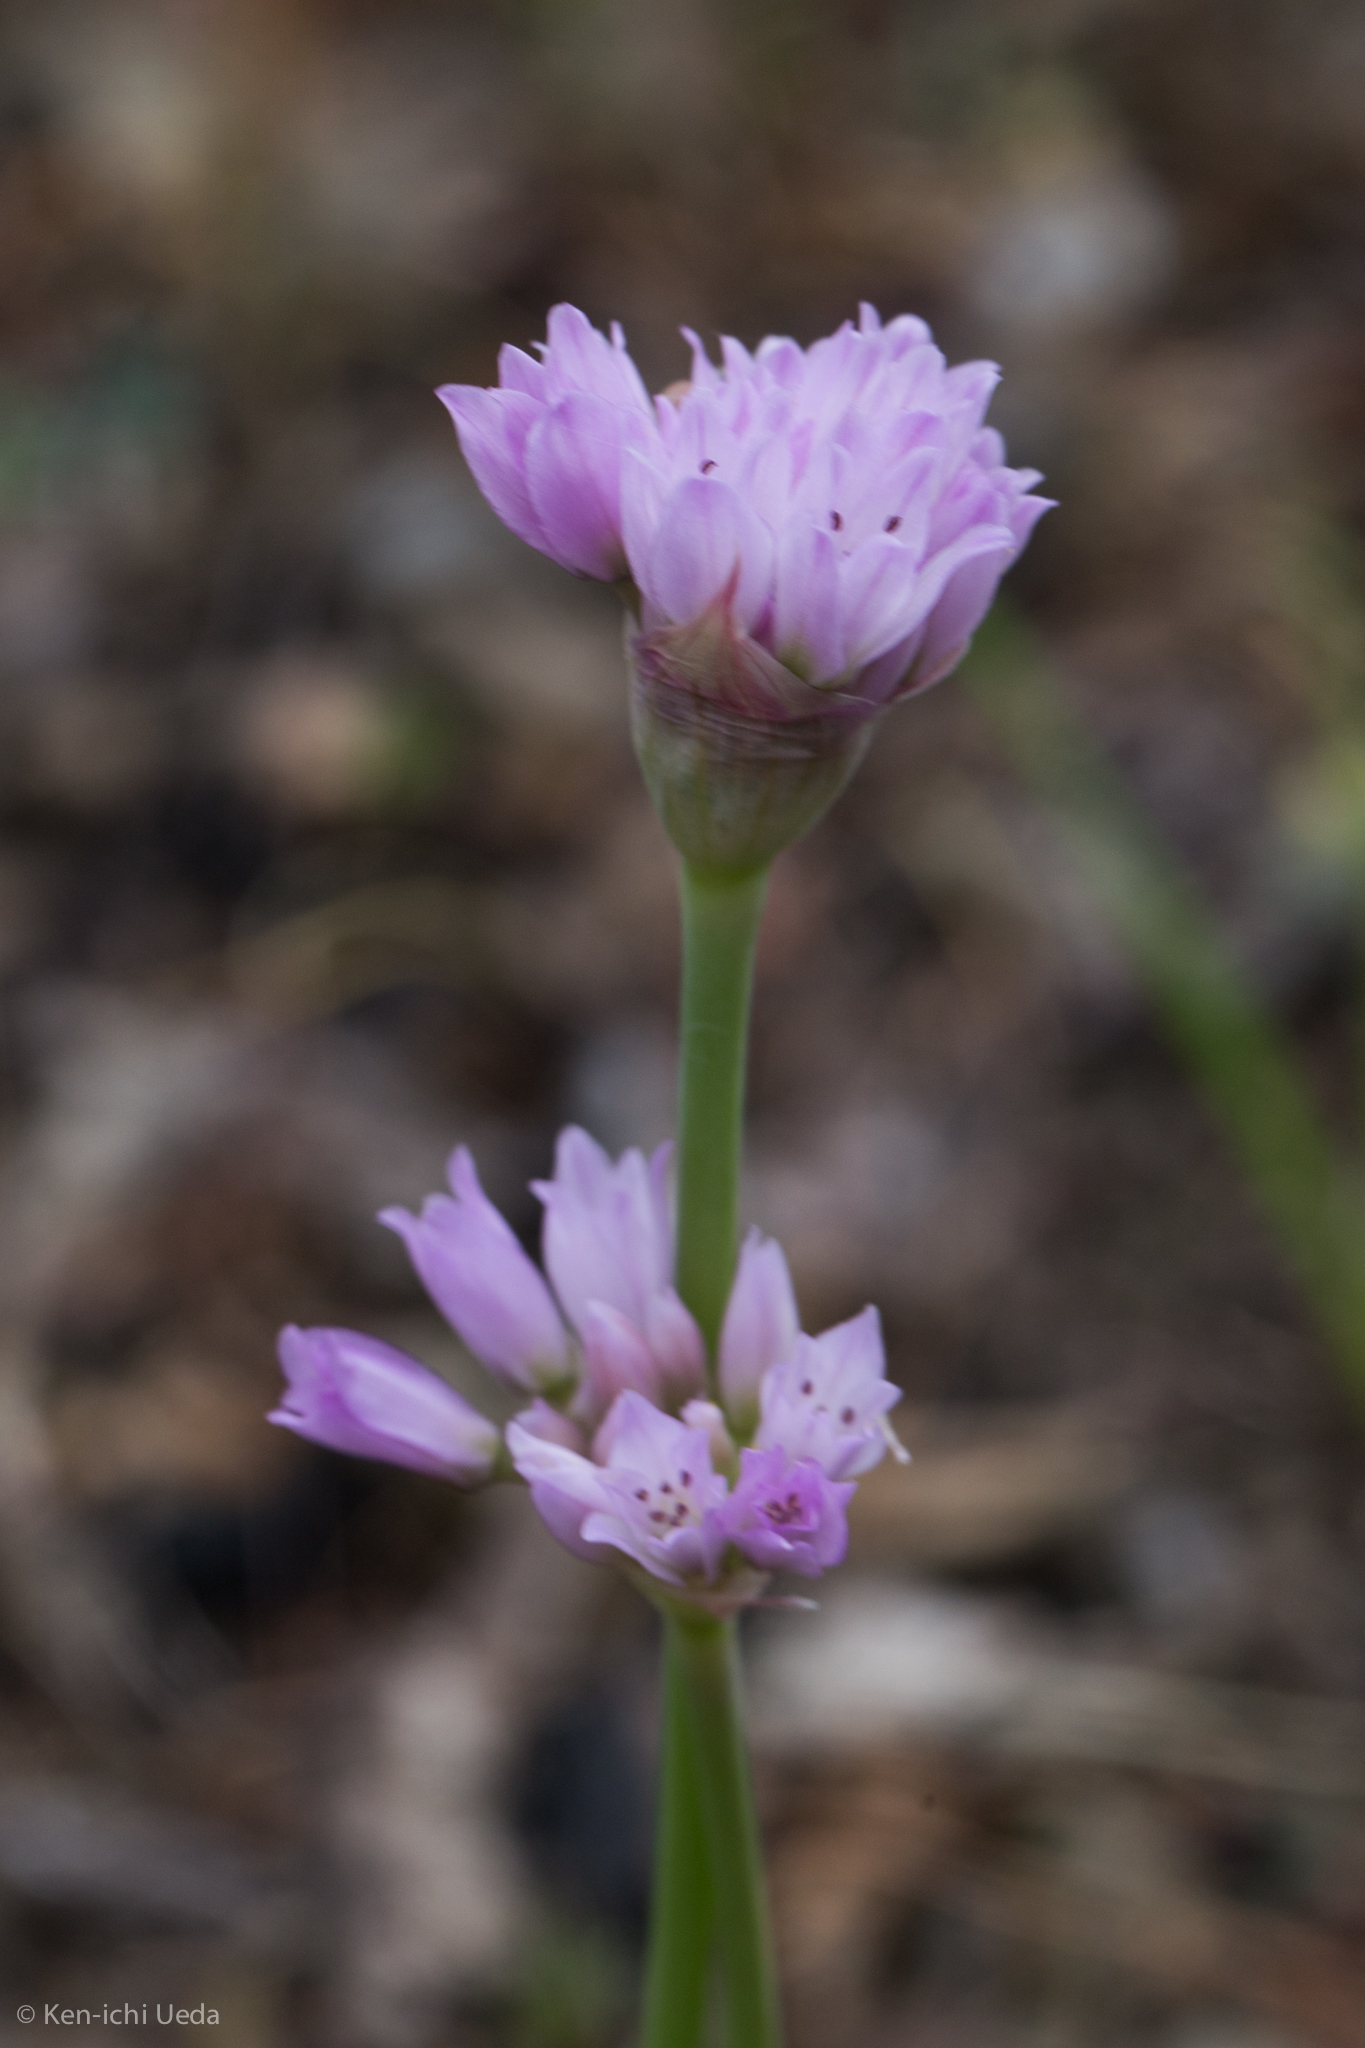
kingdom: Plantae
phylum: Tracheophyta
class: Liliopsida
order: Asparagales
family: Amaryllidaceae
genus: Allium
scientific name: Allium serra
